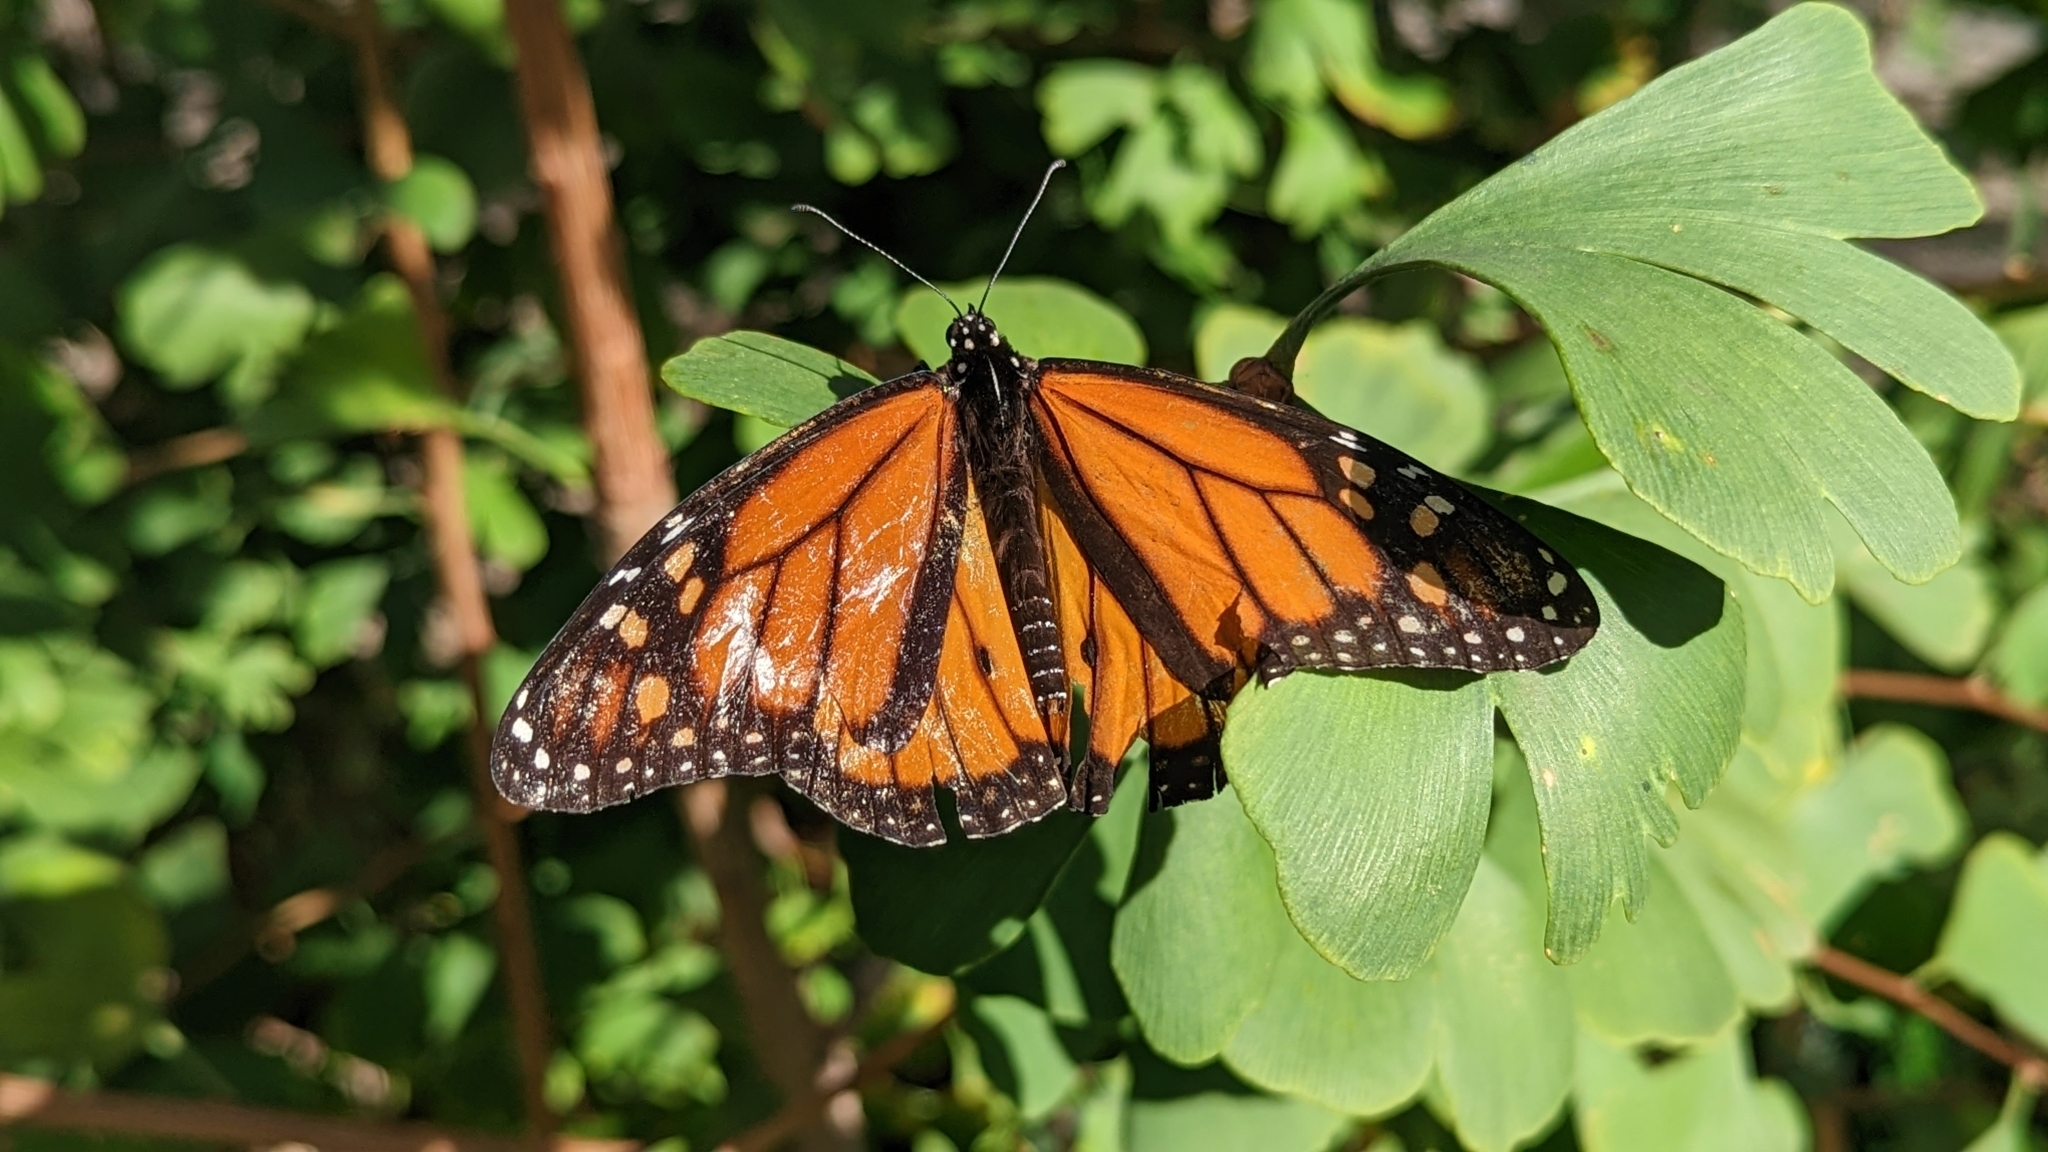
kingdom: Animalia
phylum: Arthropoda
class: Insecta
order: Lepidoptera
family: Nymphalidae
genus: Danaus
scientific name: Danaus plexippus
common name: Monarch
